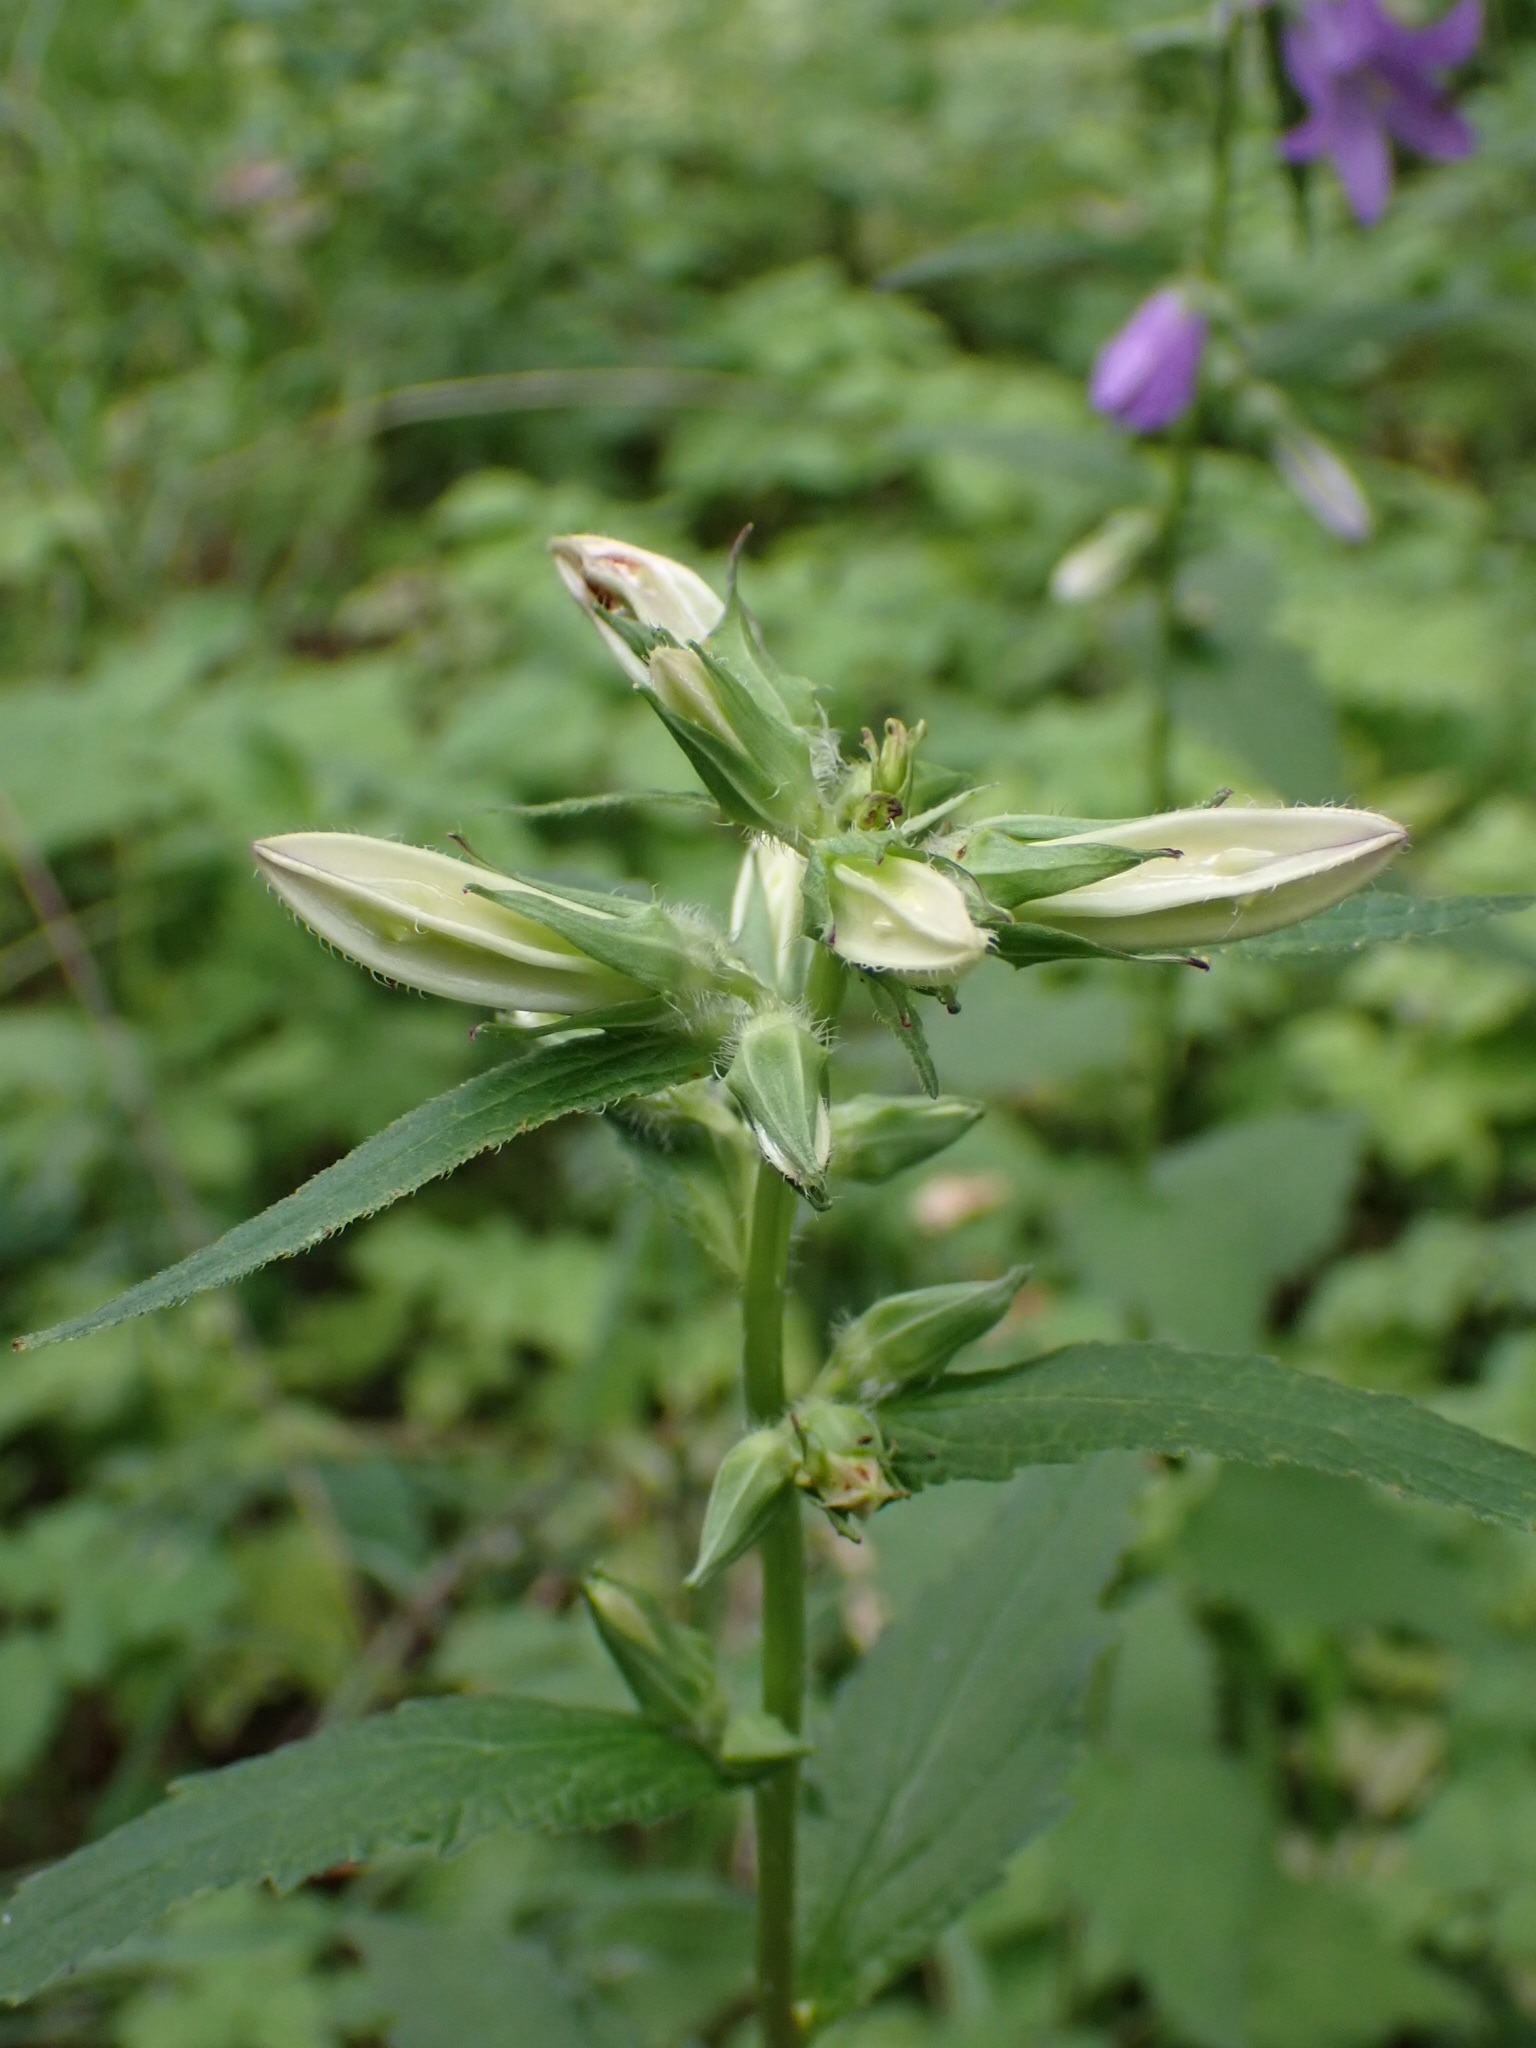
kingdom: Plantae
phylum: Tracheophyta
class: Magnoliopsida
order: Asterales
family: Campanulaceae
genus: Campanula
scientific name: Campanula trachelium
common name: Nettle-leaved bellflower
